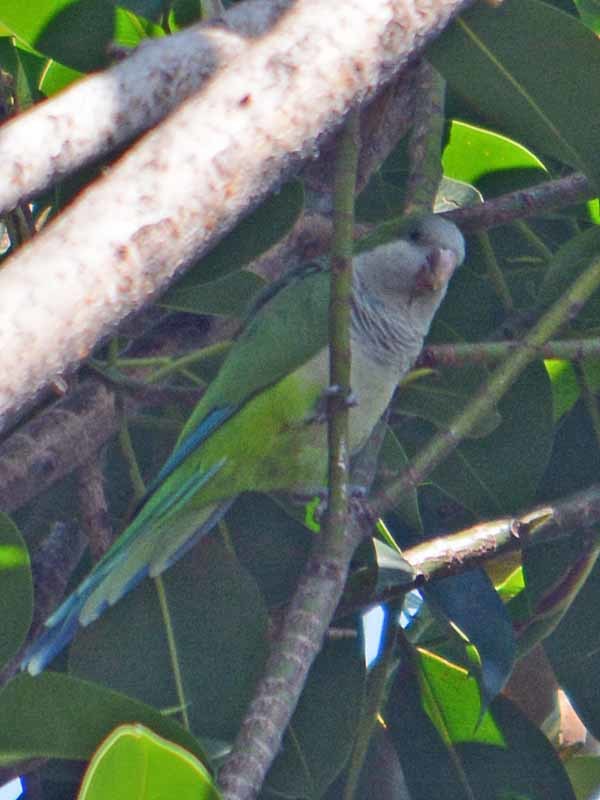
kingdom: Animalia
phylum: Chordata
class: Aves
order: Psittaciformes
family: Psittacidae
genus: Myiopsitta
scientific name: Myiopsitta monachus
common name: Monk parakeet
